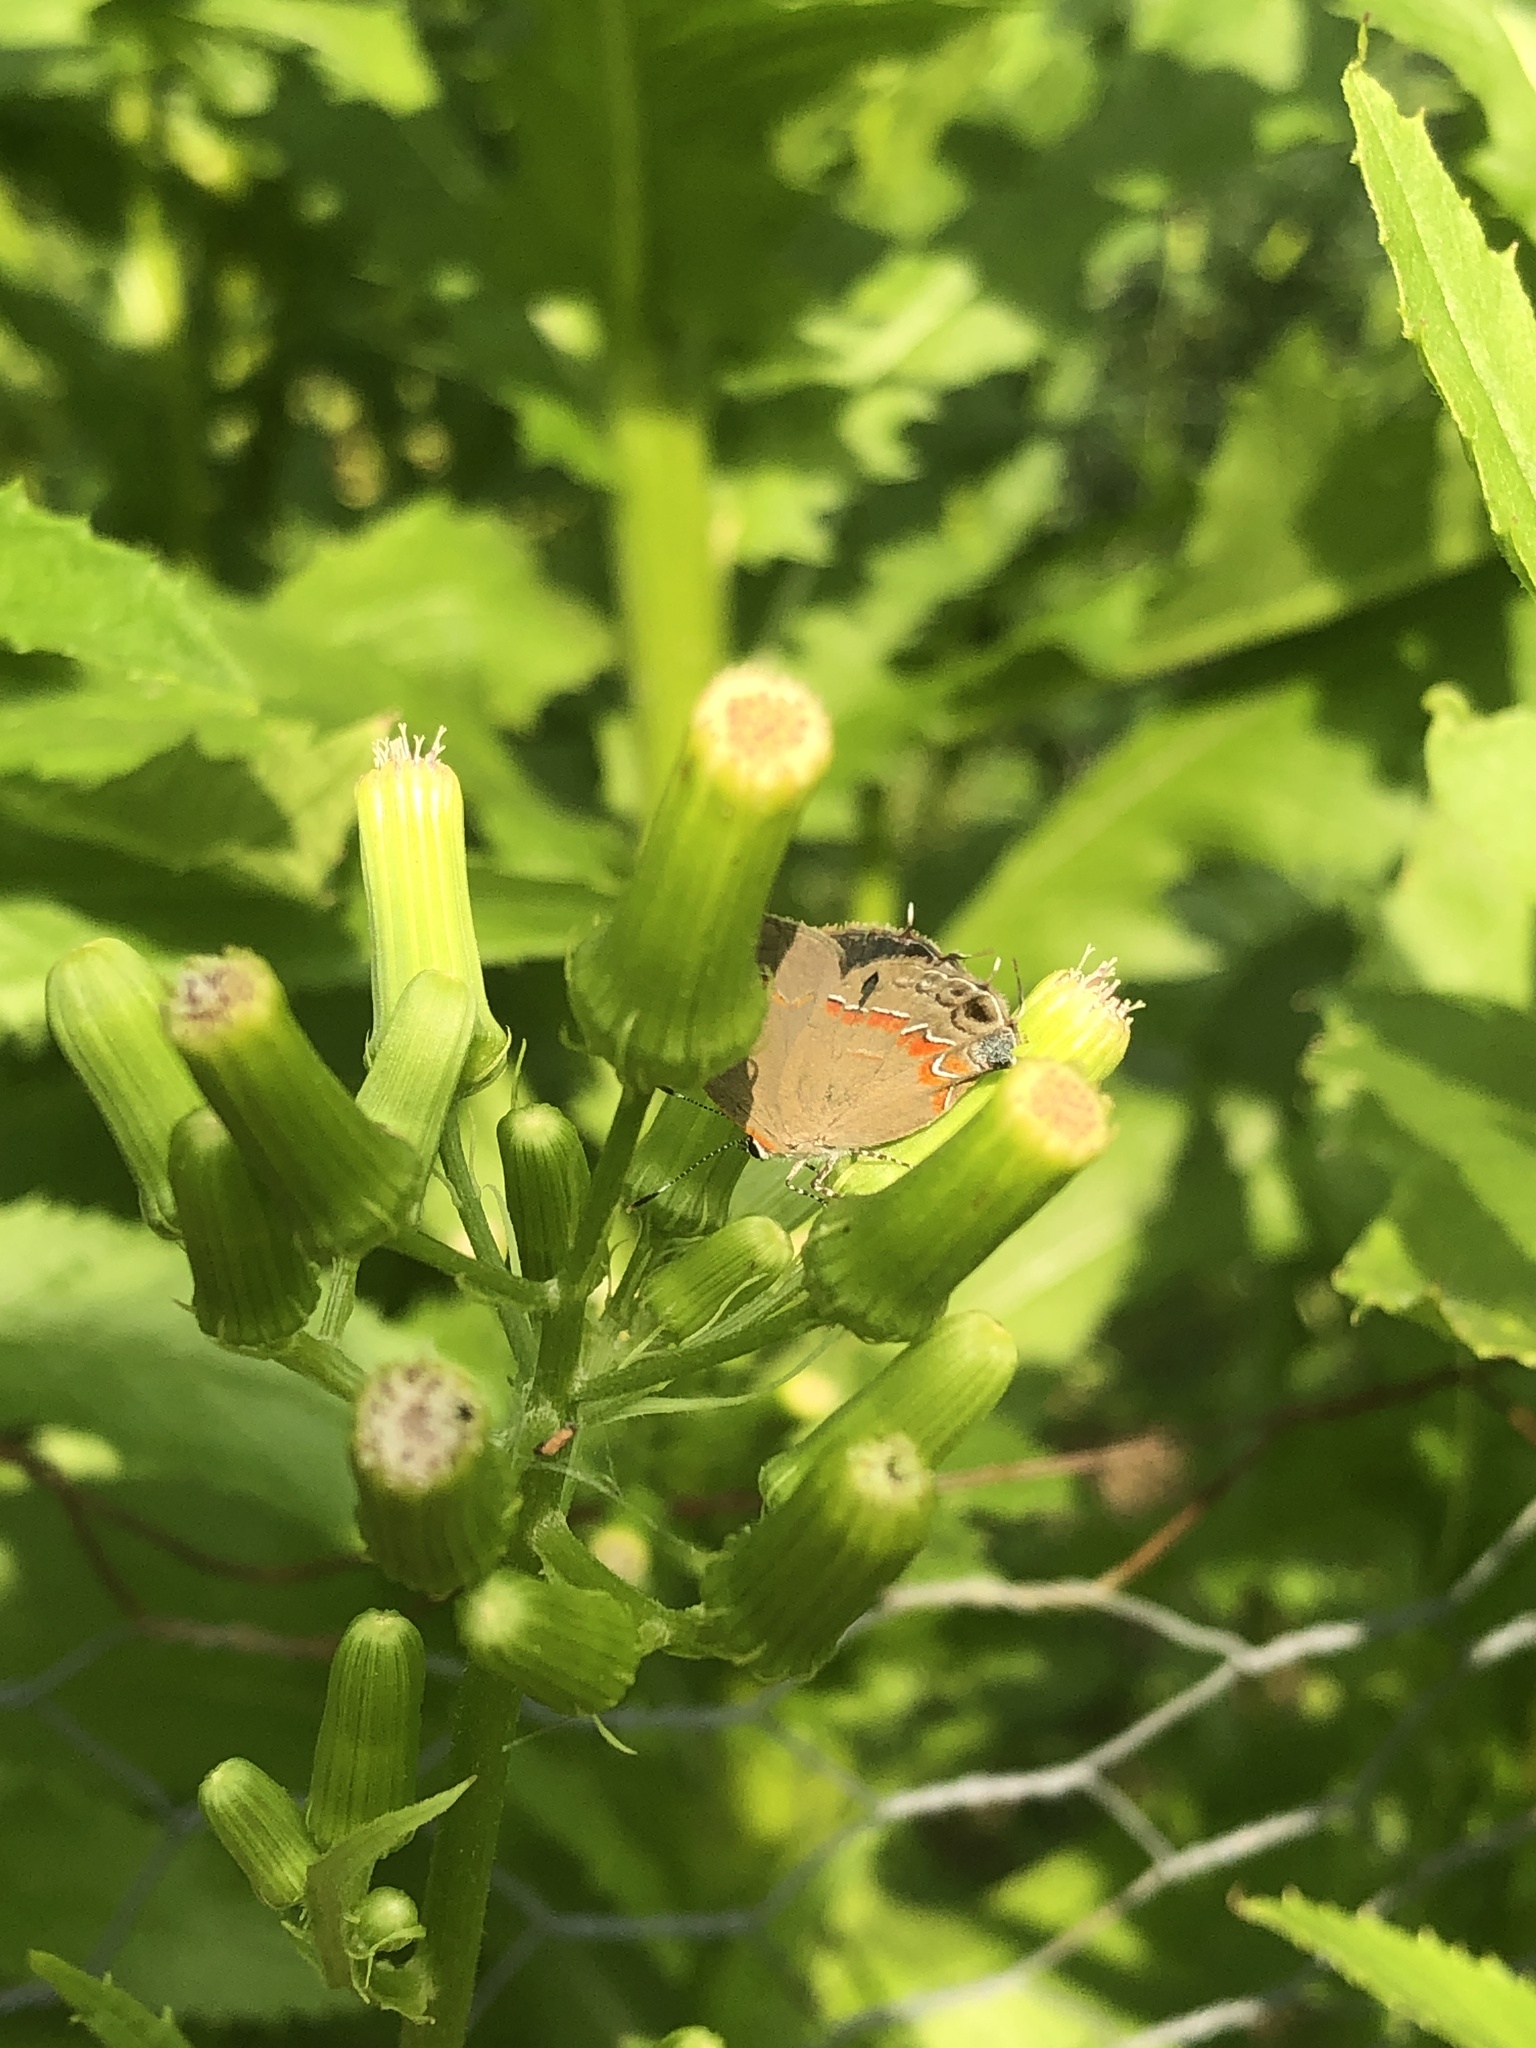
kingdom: Animalia
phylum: Arthropoda
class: Insecta
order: Lepidoptera
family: Lycaenidae
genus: Calycopis
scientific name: Calycopis cecrops
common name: Red-banded hairstreak
